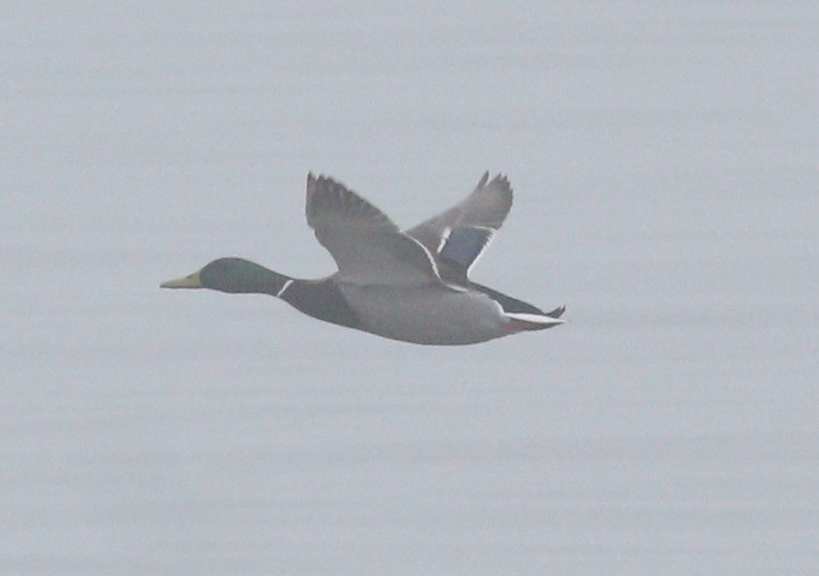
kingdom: Animalia
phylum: Chordata
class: Aves
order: Anseriformes
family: Anatidae
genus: Anas
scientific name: Anas platyrhynchos
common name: Mallard
